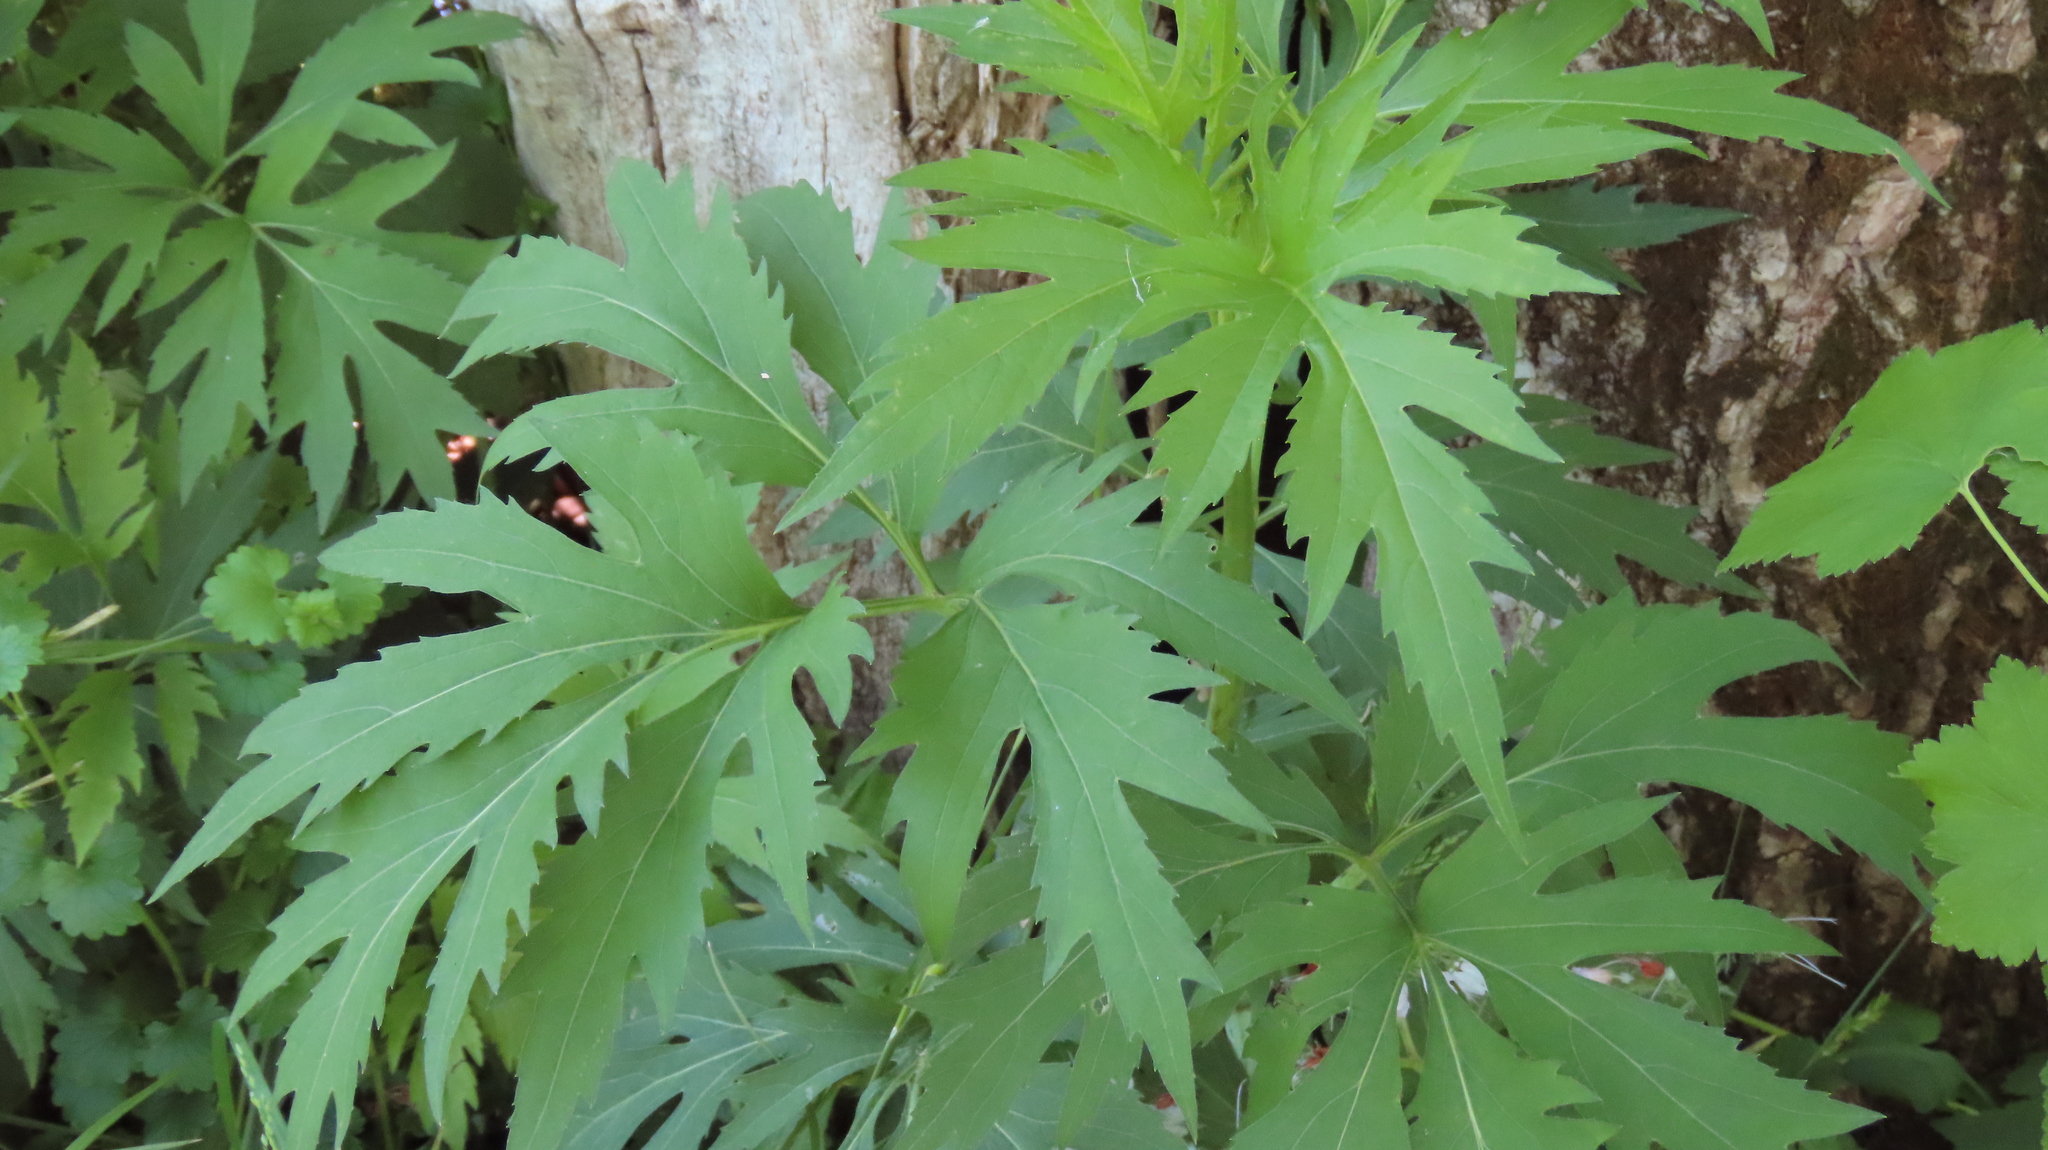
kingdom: Plantae
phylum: Tracheophyta
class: Magnoliopsida
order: Asterales
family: Asteraceae
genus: Rudbeckia
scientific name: Rudbeckia laciniata
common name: Coneflower
